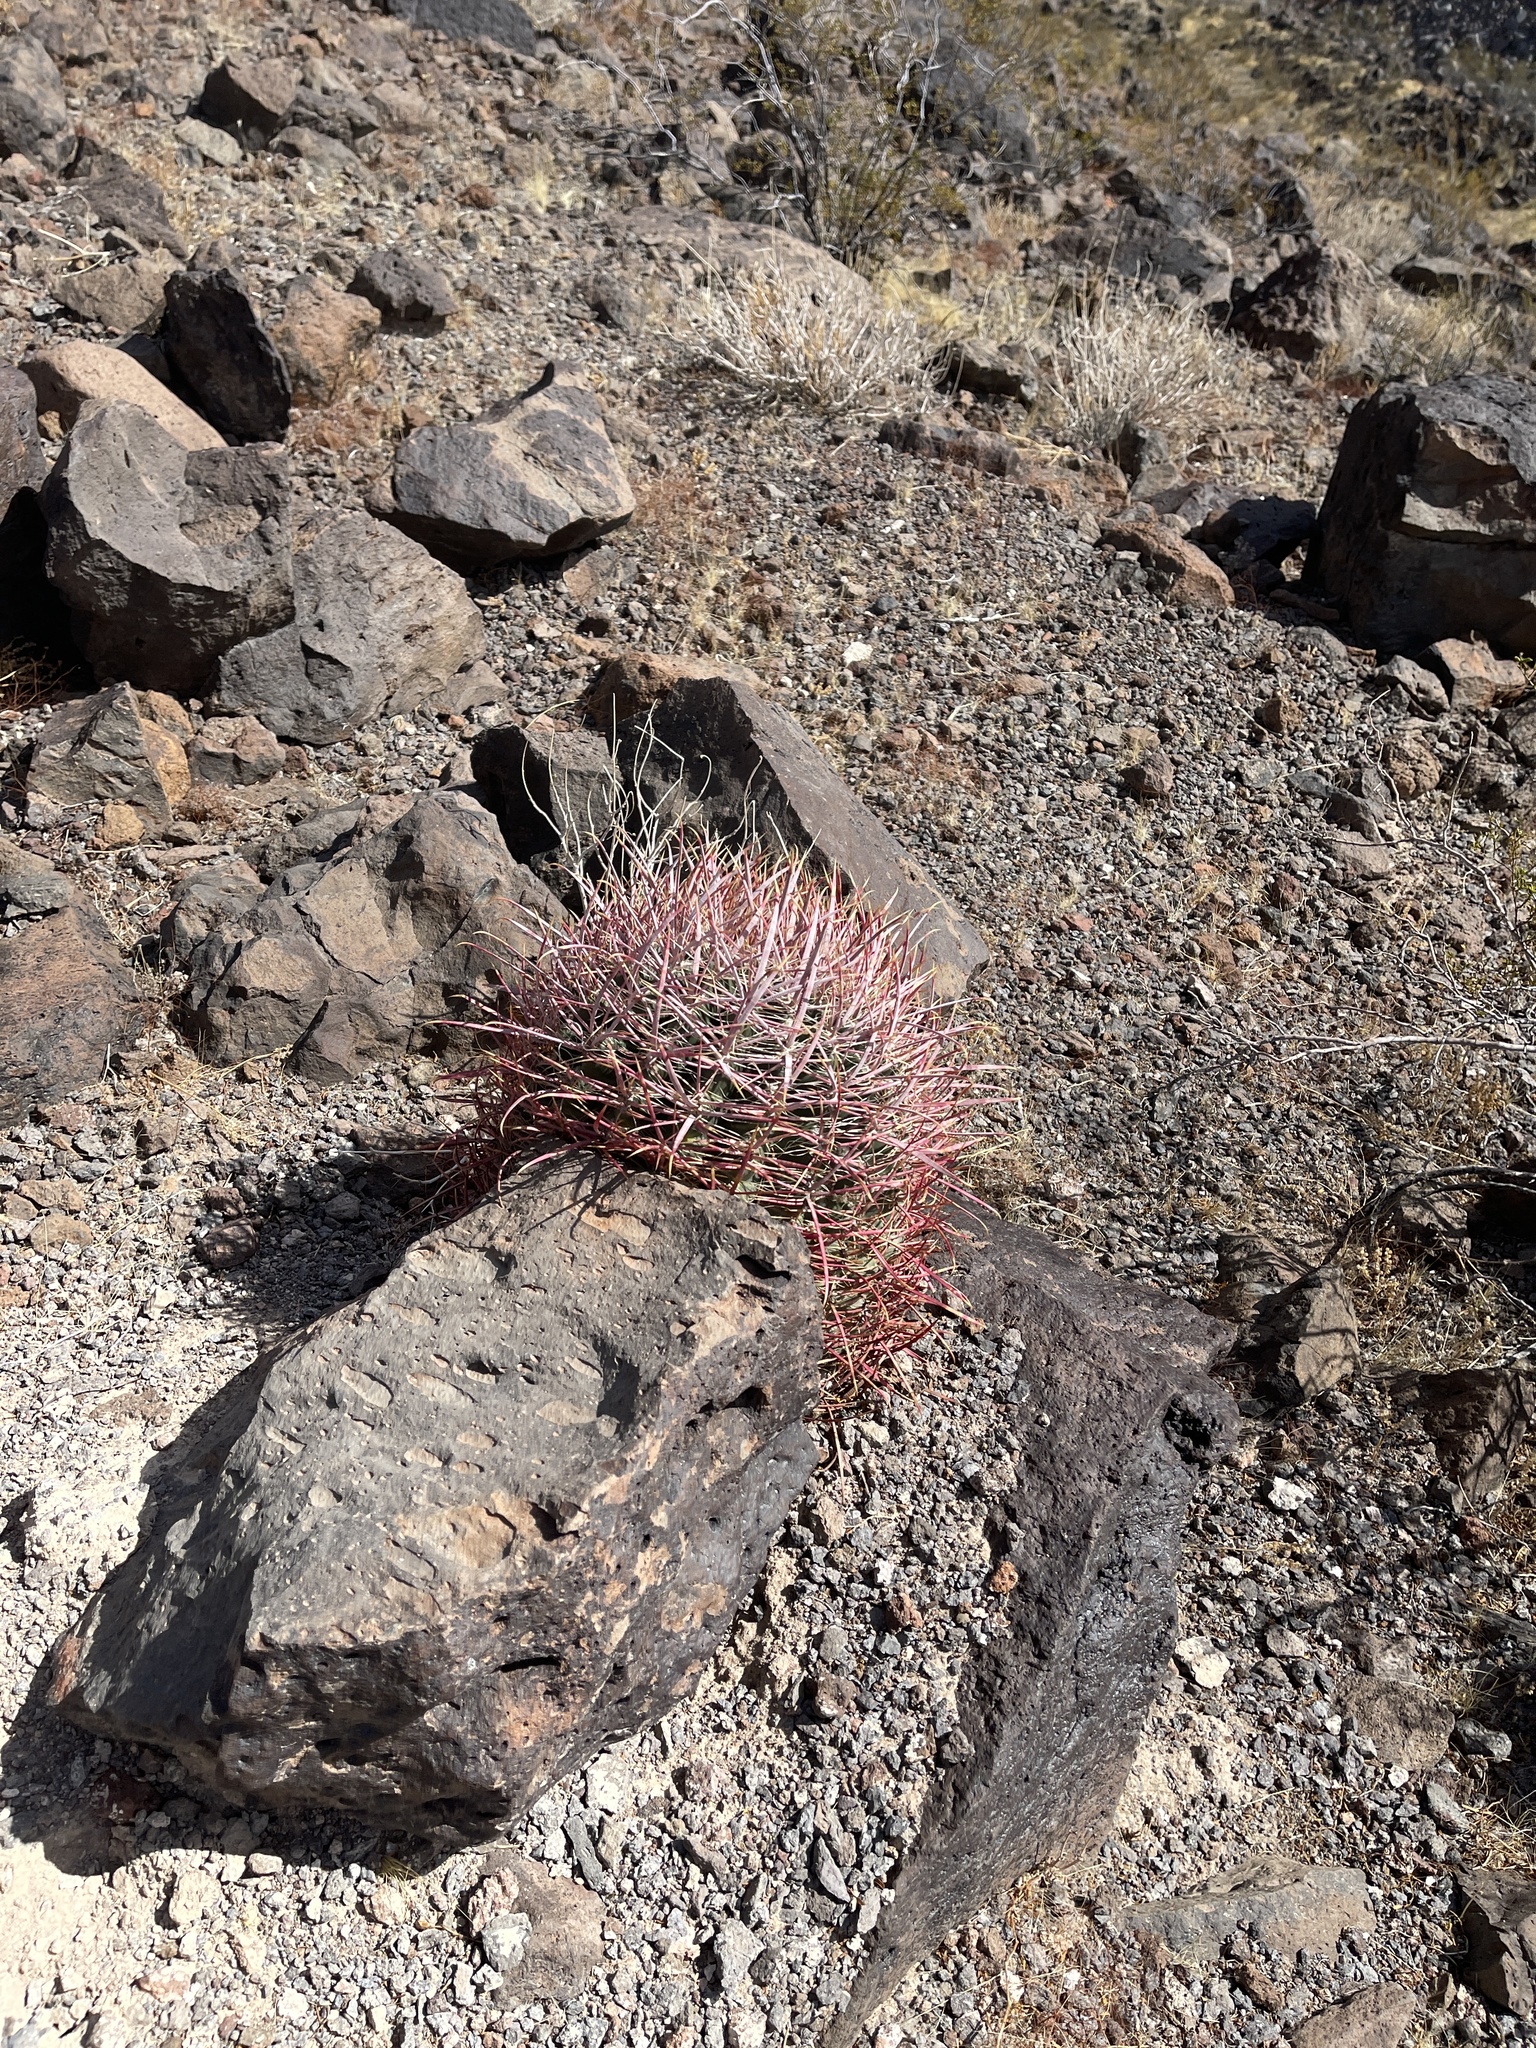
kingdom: Plantae
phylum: Tracheophyta
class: Magnoliopsida
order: Caryophyllales
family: Cactaceae
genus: Ferocactus
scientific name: Ferocactus cylindraceus
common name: California barrel cactus
